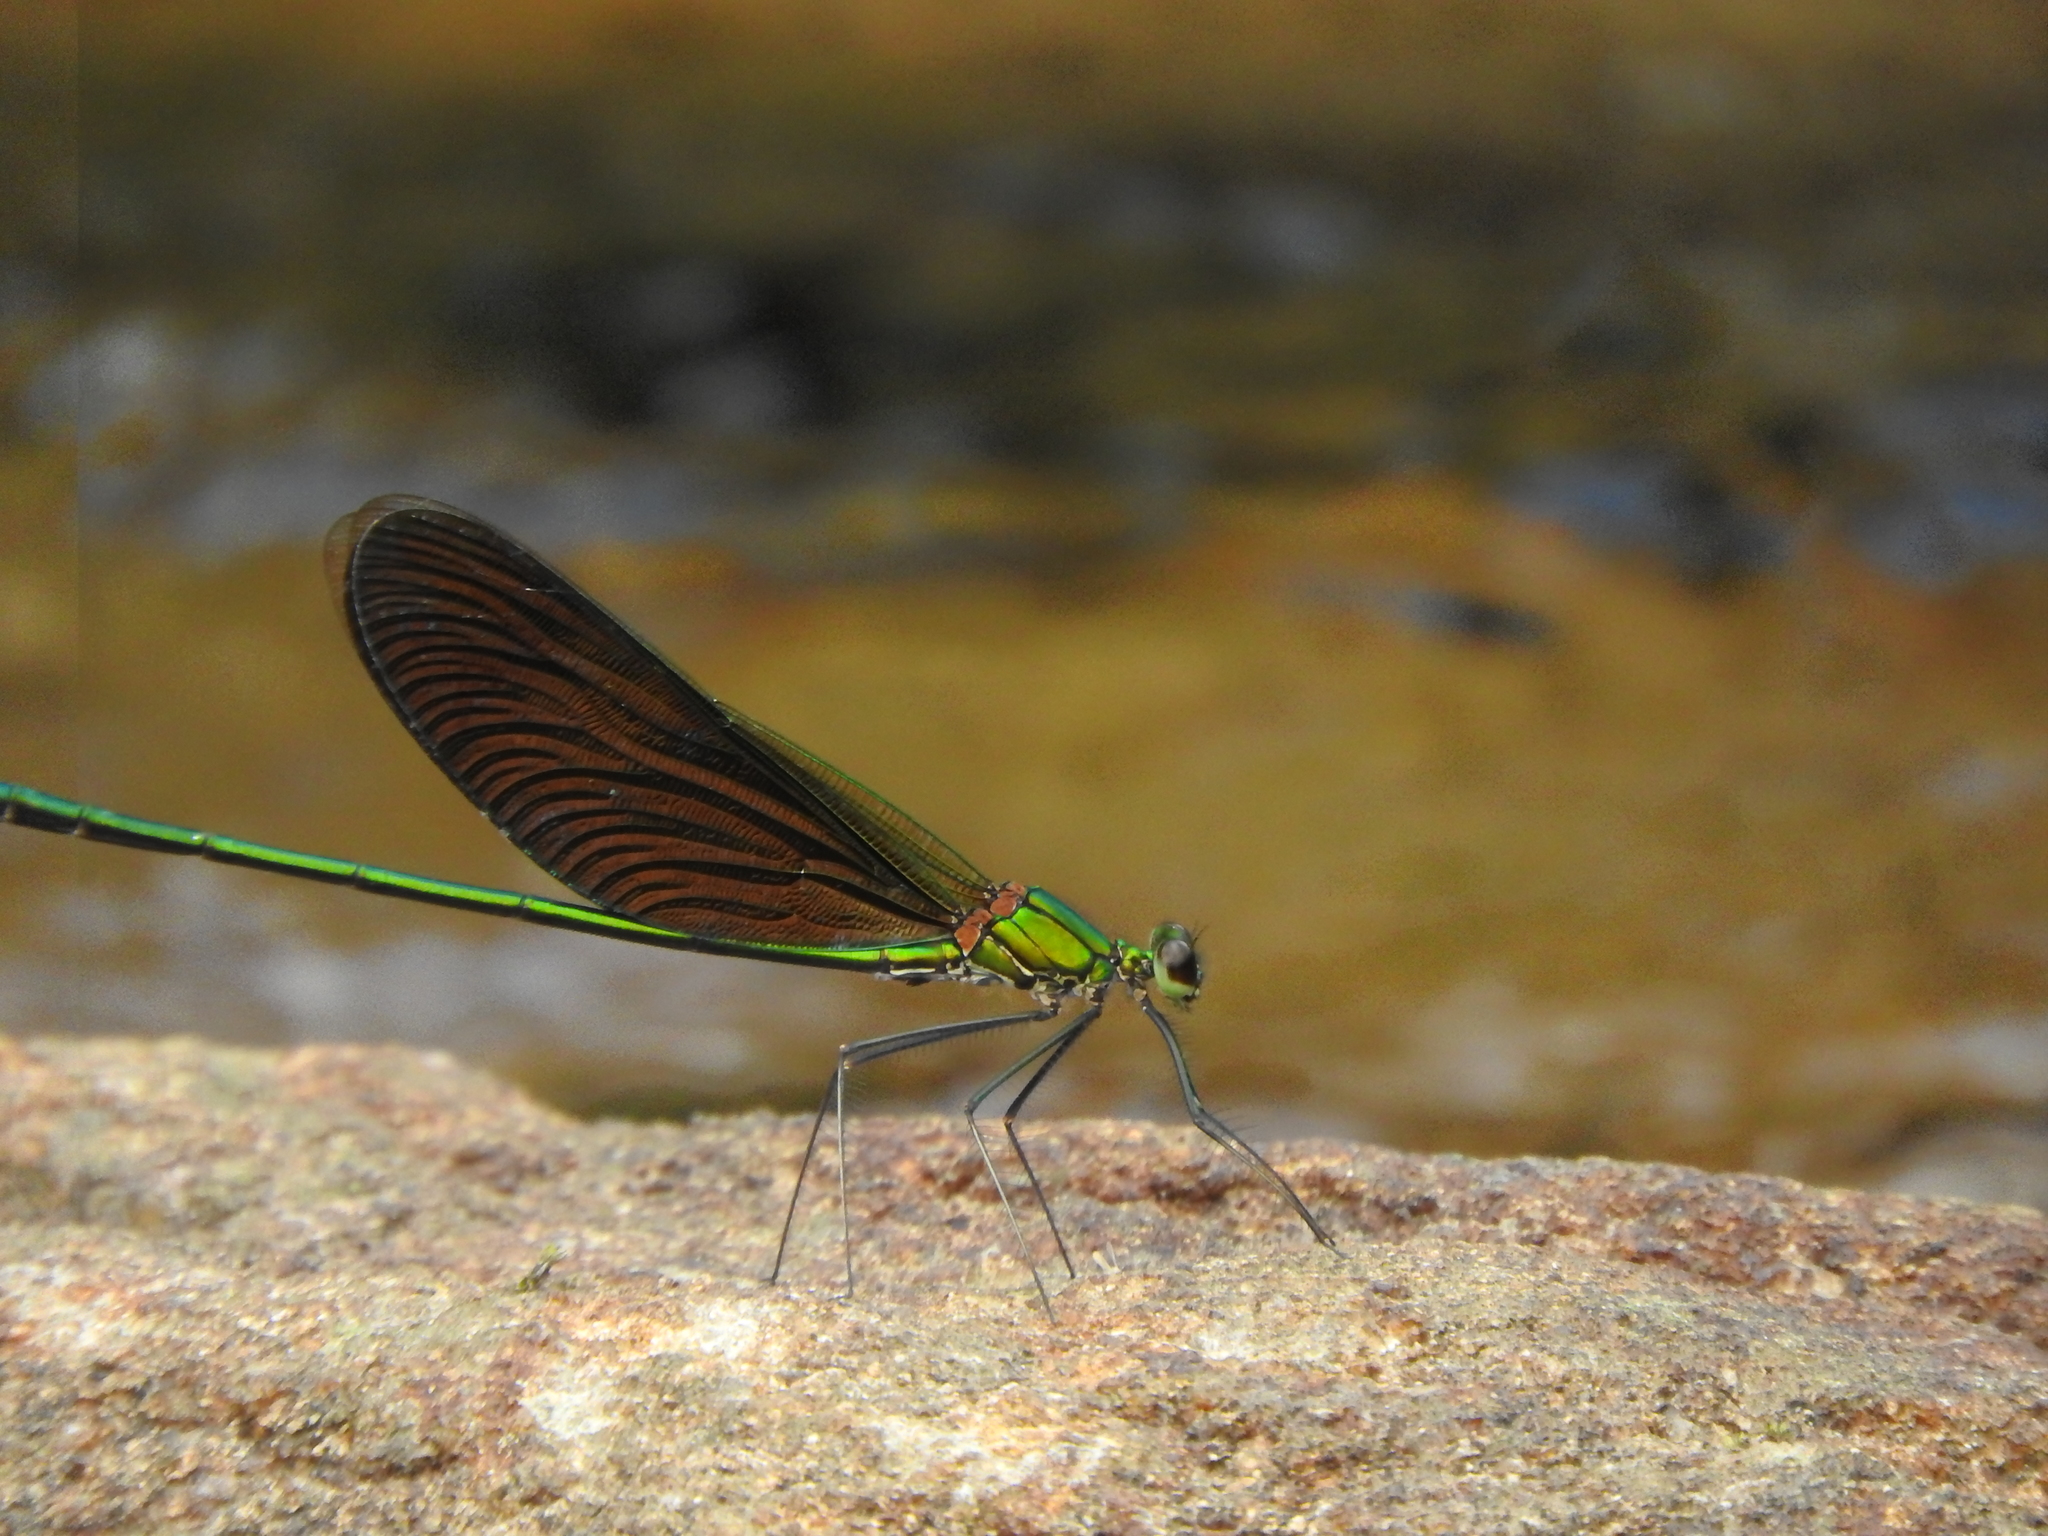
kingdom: Animalia
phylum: Arthropoda
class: Insecta
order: Odonata
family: Calopterygidae
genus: Neurobasis
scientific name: Neurobasis chinensis
